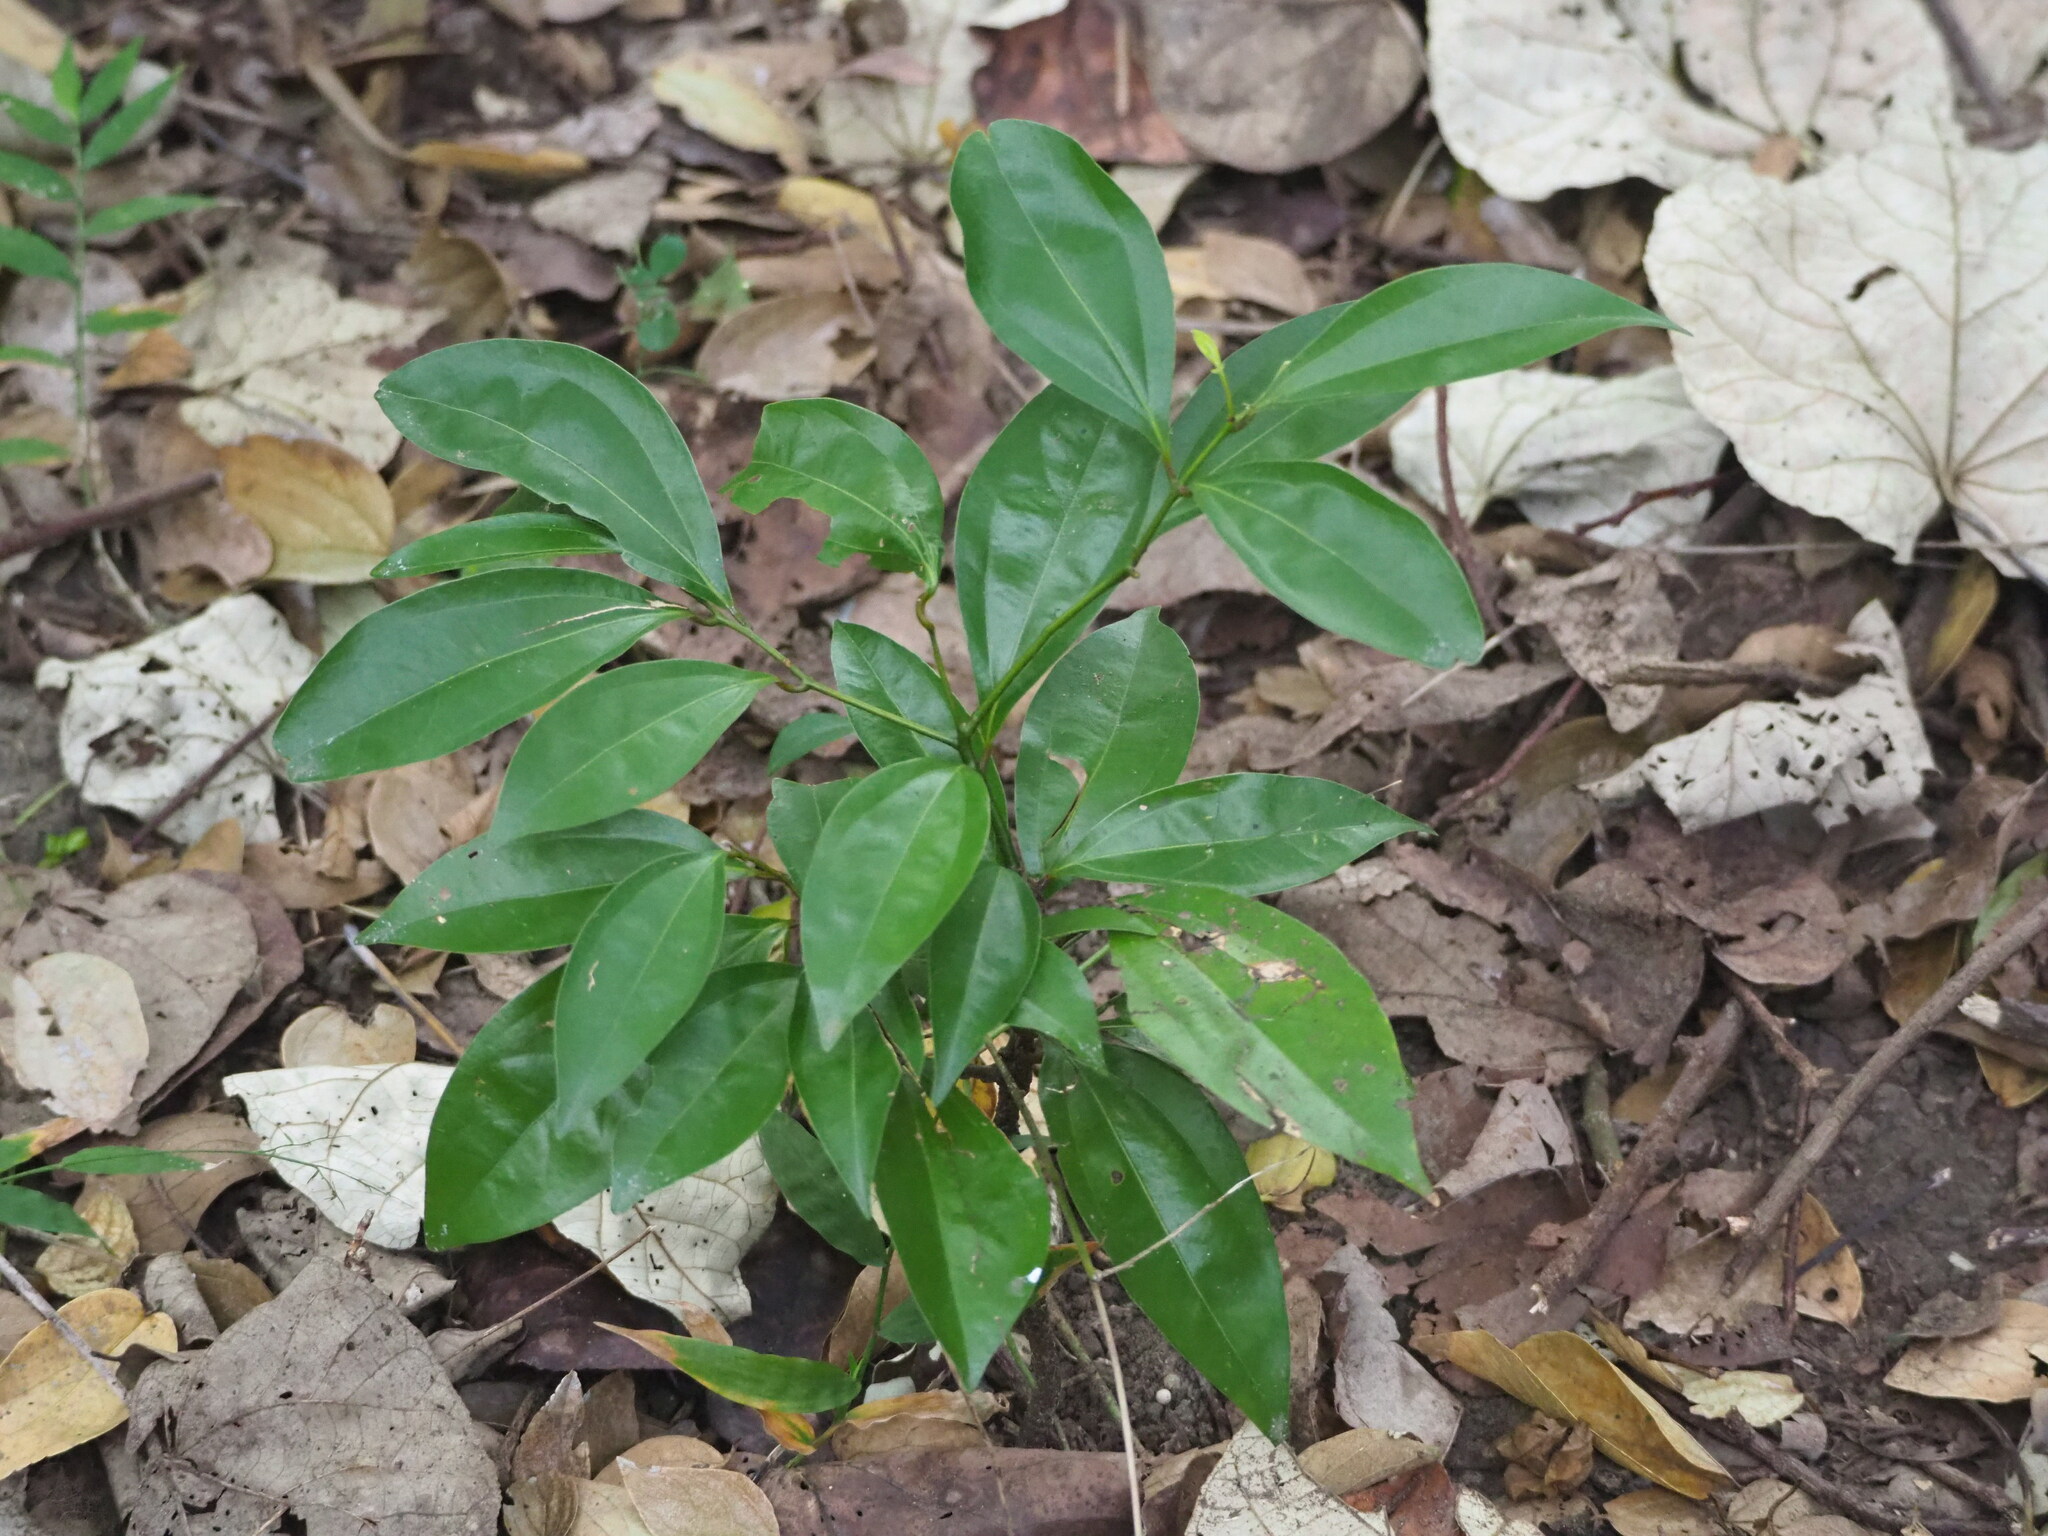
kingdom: Plantae
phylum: Tracheophyta
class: Magnoliopsida
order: Laurales
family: Lauraceae
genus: Cinnamomum
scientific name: Cinnamomum burmanni
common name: Padang cassia
